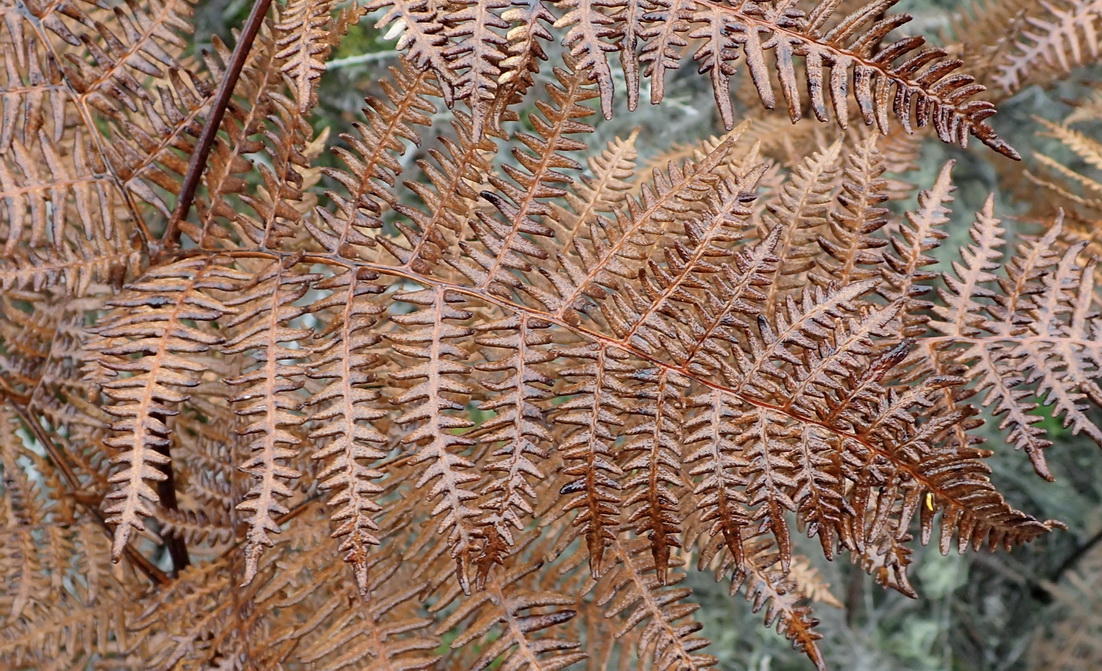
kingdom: Plantae
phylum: Tracheophyta
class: Polypodiopsida
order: Polypodiales
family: Dennstaedtiaceae
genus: Pteridium
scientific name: Pteridium aquilinum
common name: Bracken
